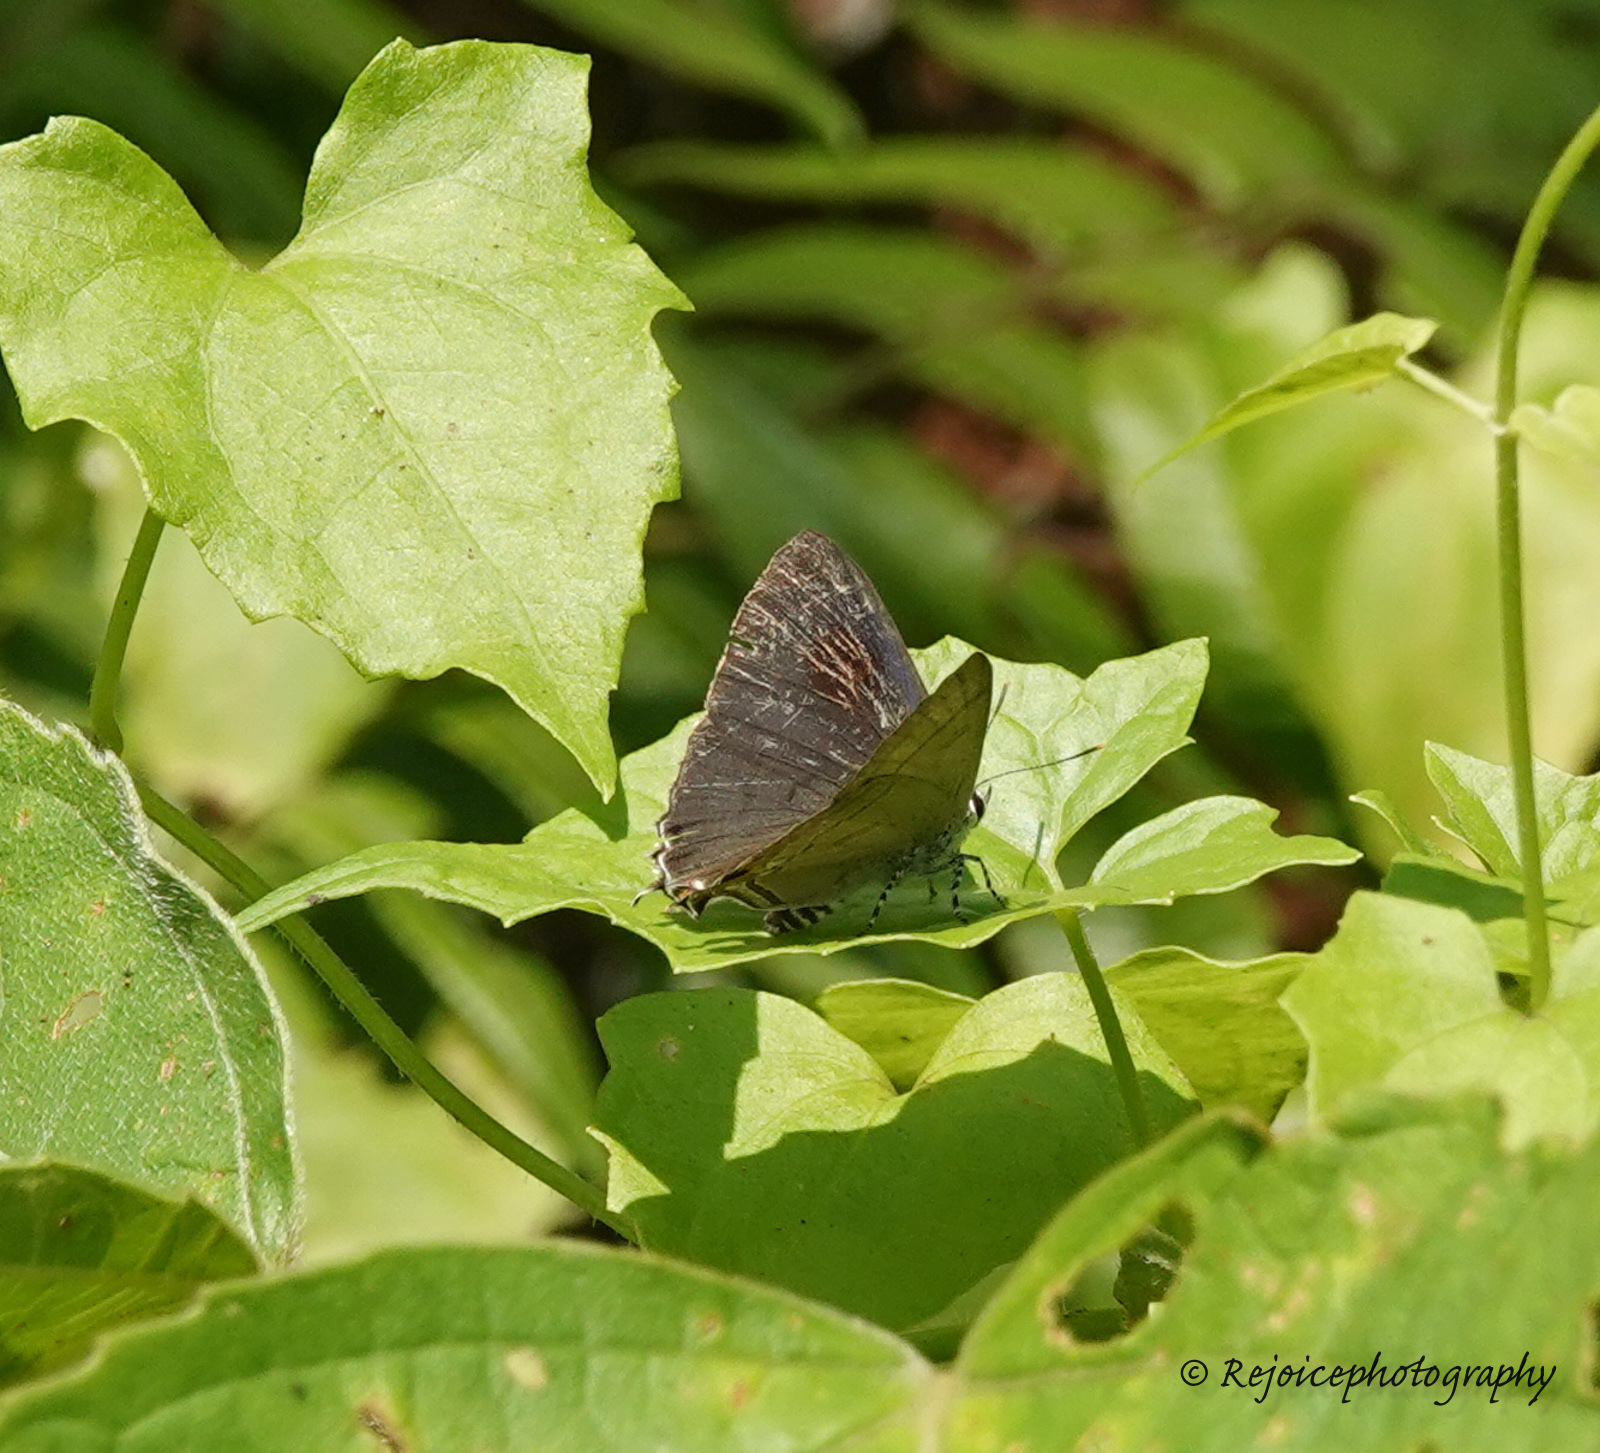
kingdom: Animalia
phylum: Arthropoda
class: Insecta
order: Lepidoptera
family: Lycaenidae
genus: Hypolycaena
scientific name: Hypolycaena erylus
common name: Common tit
